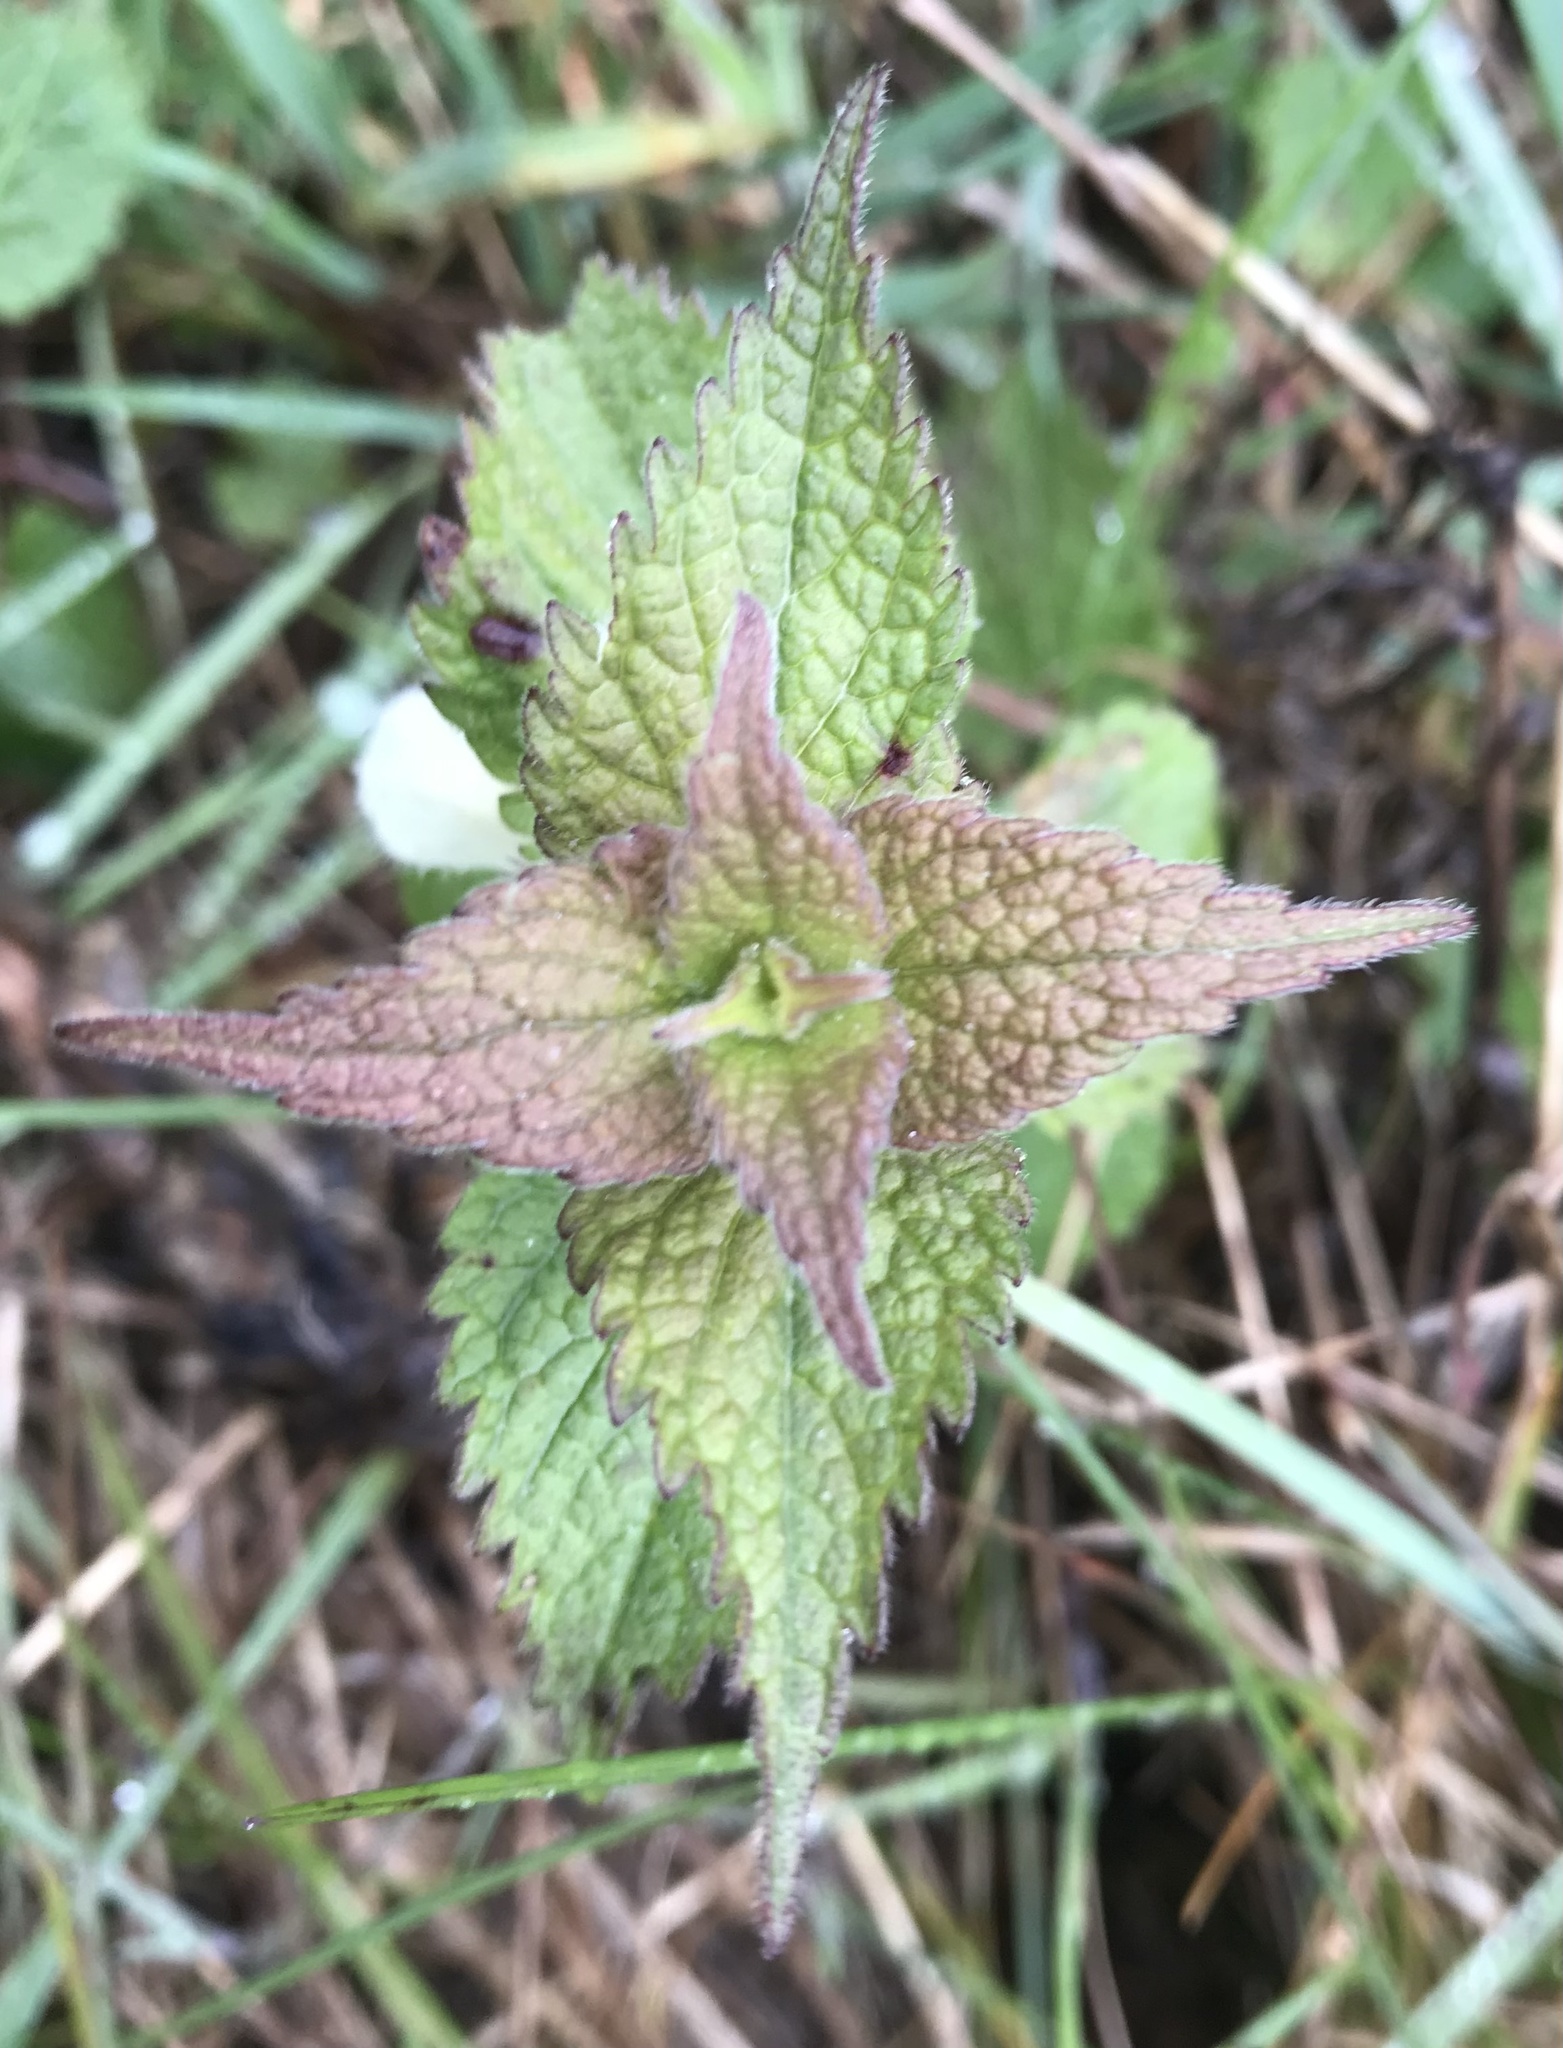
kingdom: Plantae
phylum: Tracheophyta
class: Magnoliopsida
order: Lamiales
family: Lamiaceae
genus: Lamium
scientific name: Lamium album
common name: White dead-nettle
